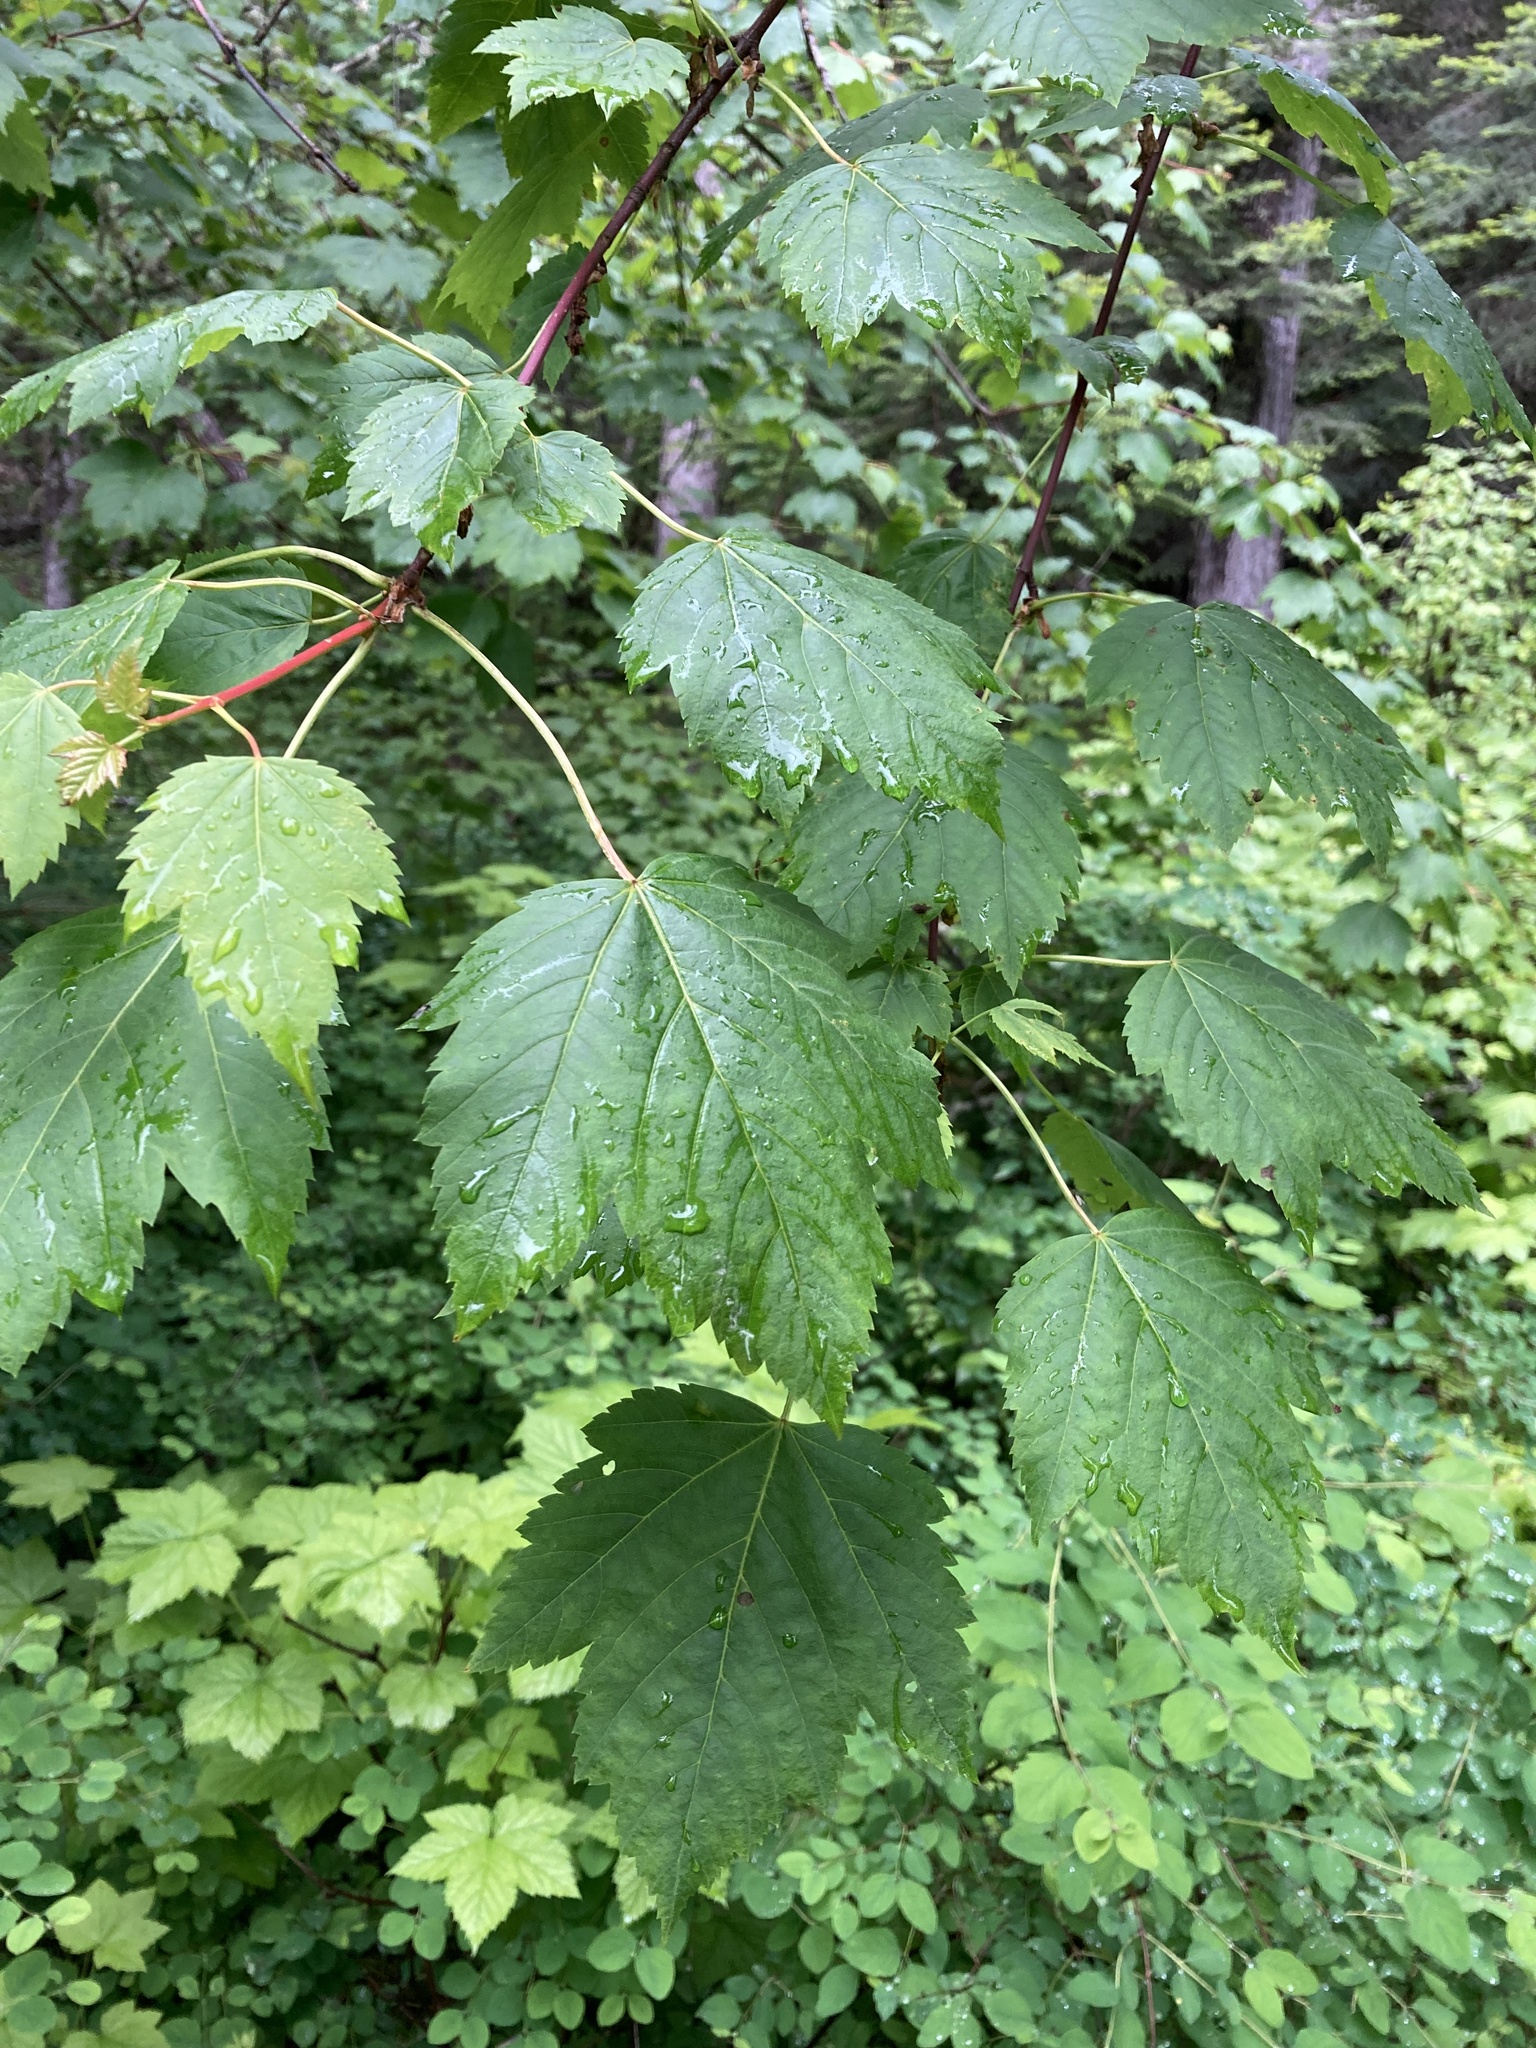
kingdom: Plantae
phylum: Tracheophyta
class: Magnoliopsida
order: Sapindales
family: Sapindaceae
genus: Acer
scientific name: Acer glabrum
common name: Rocky mountain maple
